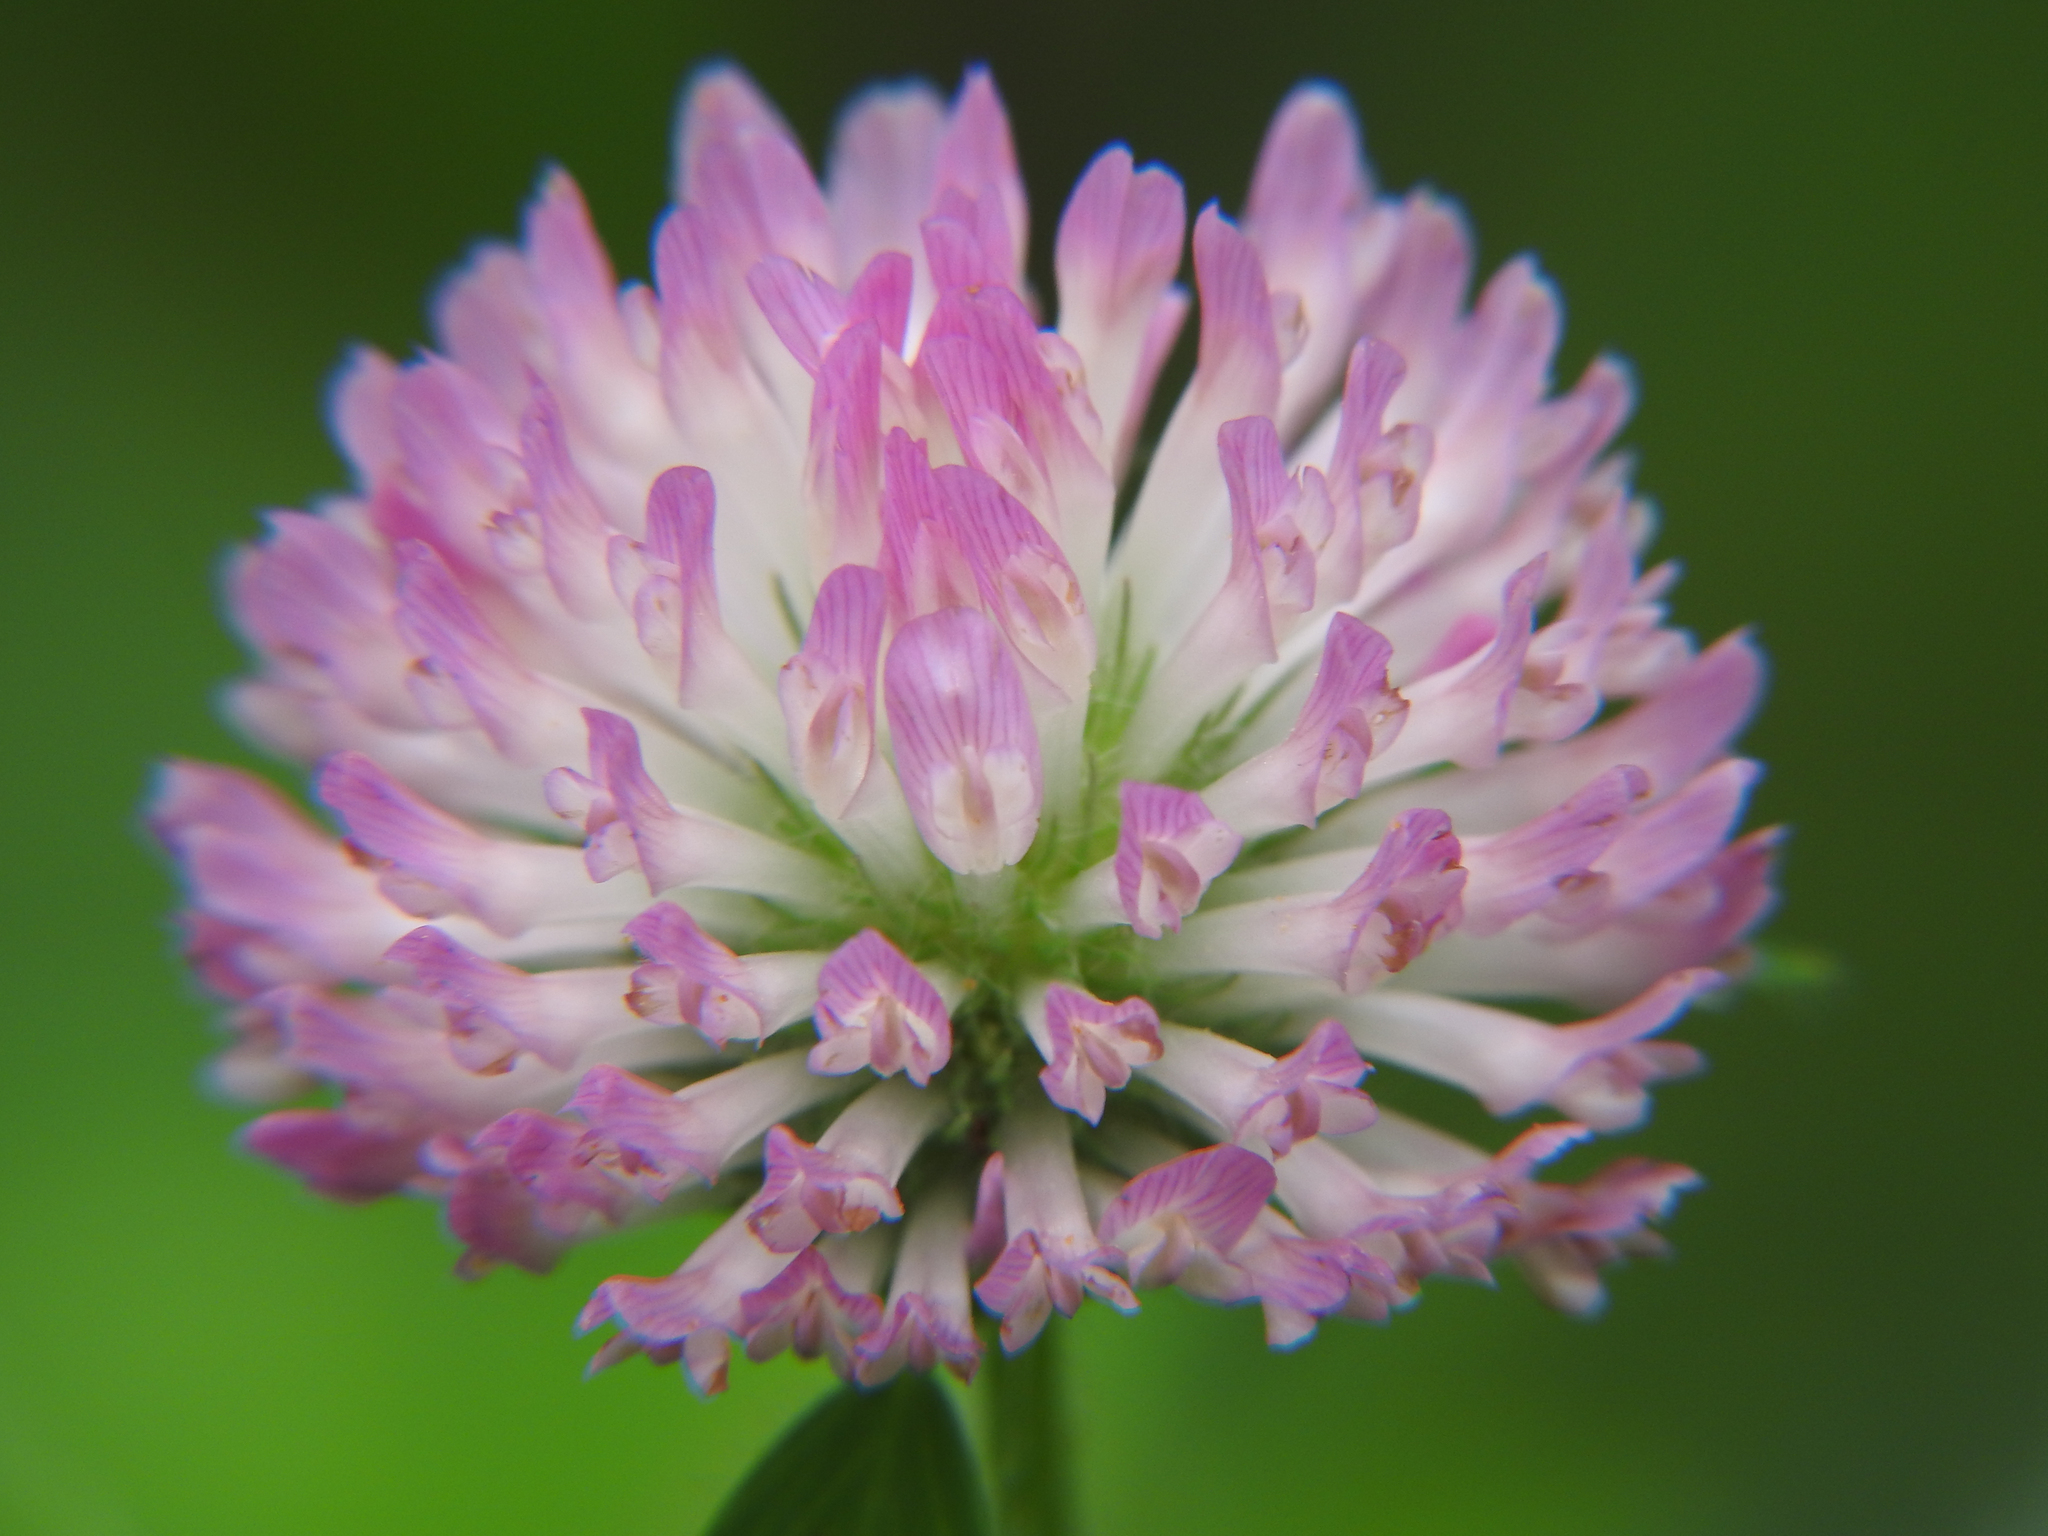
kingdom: Plantae
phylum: Tracheophyta
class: Magnoliopsida
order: Fabales
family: Fabaceae
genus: Trifolium
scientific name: Trifolium pratense
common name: Red clover
